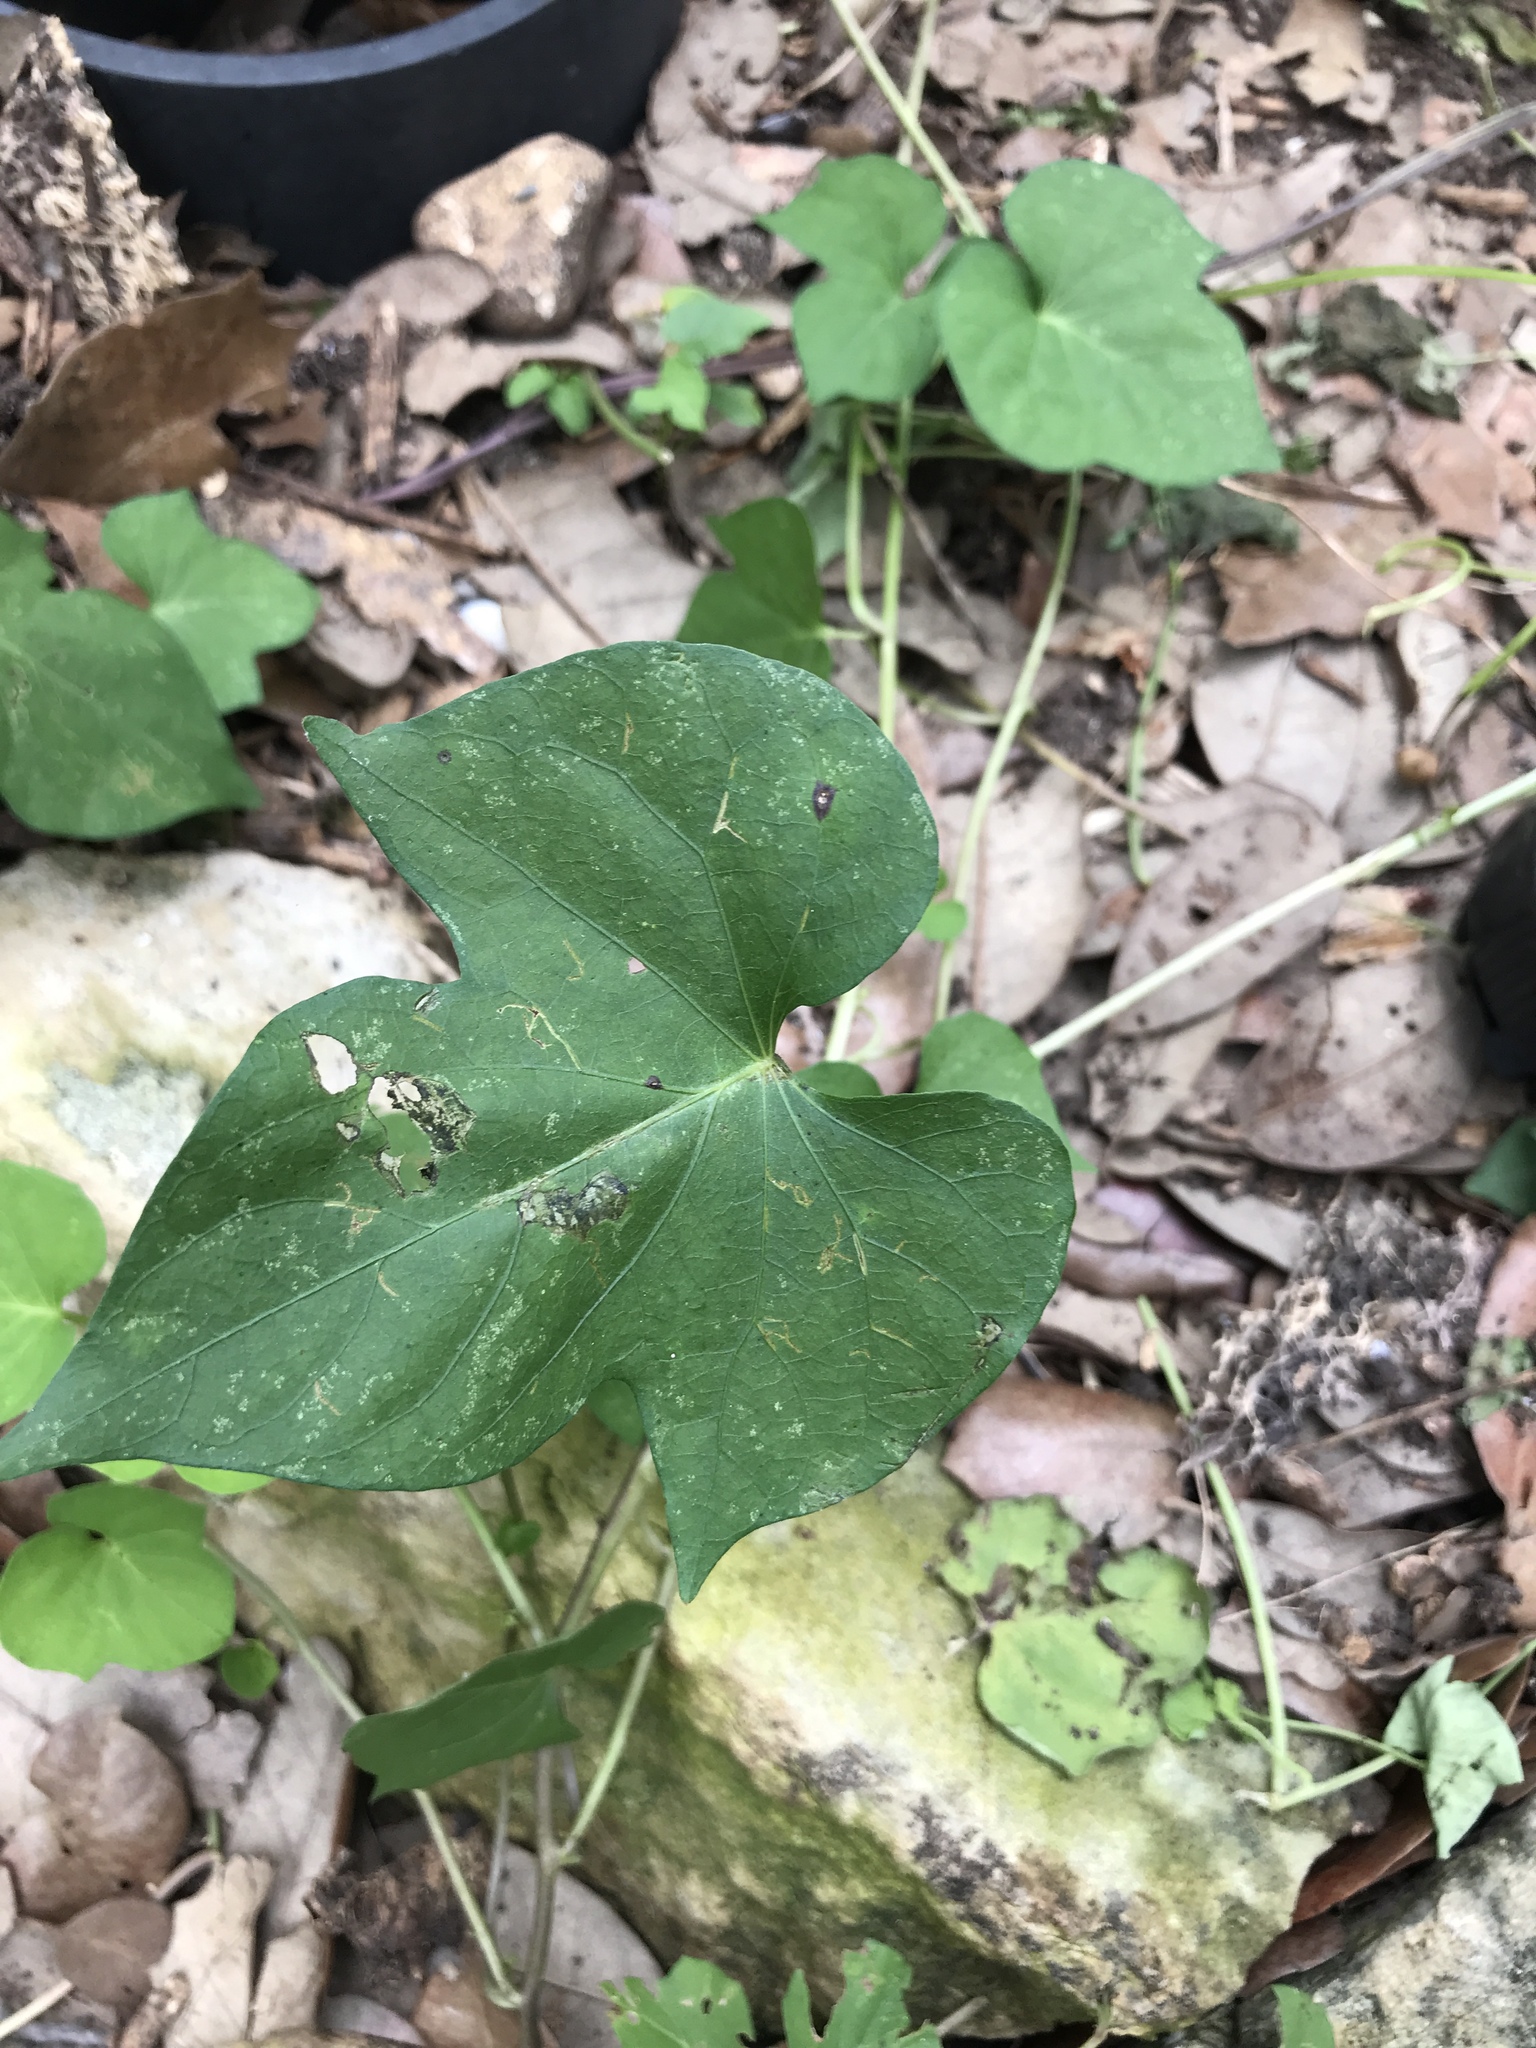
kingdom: Plantae
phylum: Tracheophyta
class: Magnoliopsida
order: Solanales
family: Convolvulaceae
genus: Ipomoea
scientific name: Ipomoea cordatotriloba
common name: Cotton morning glory
